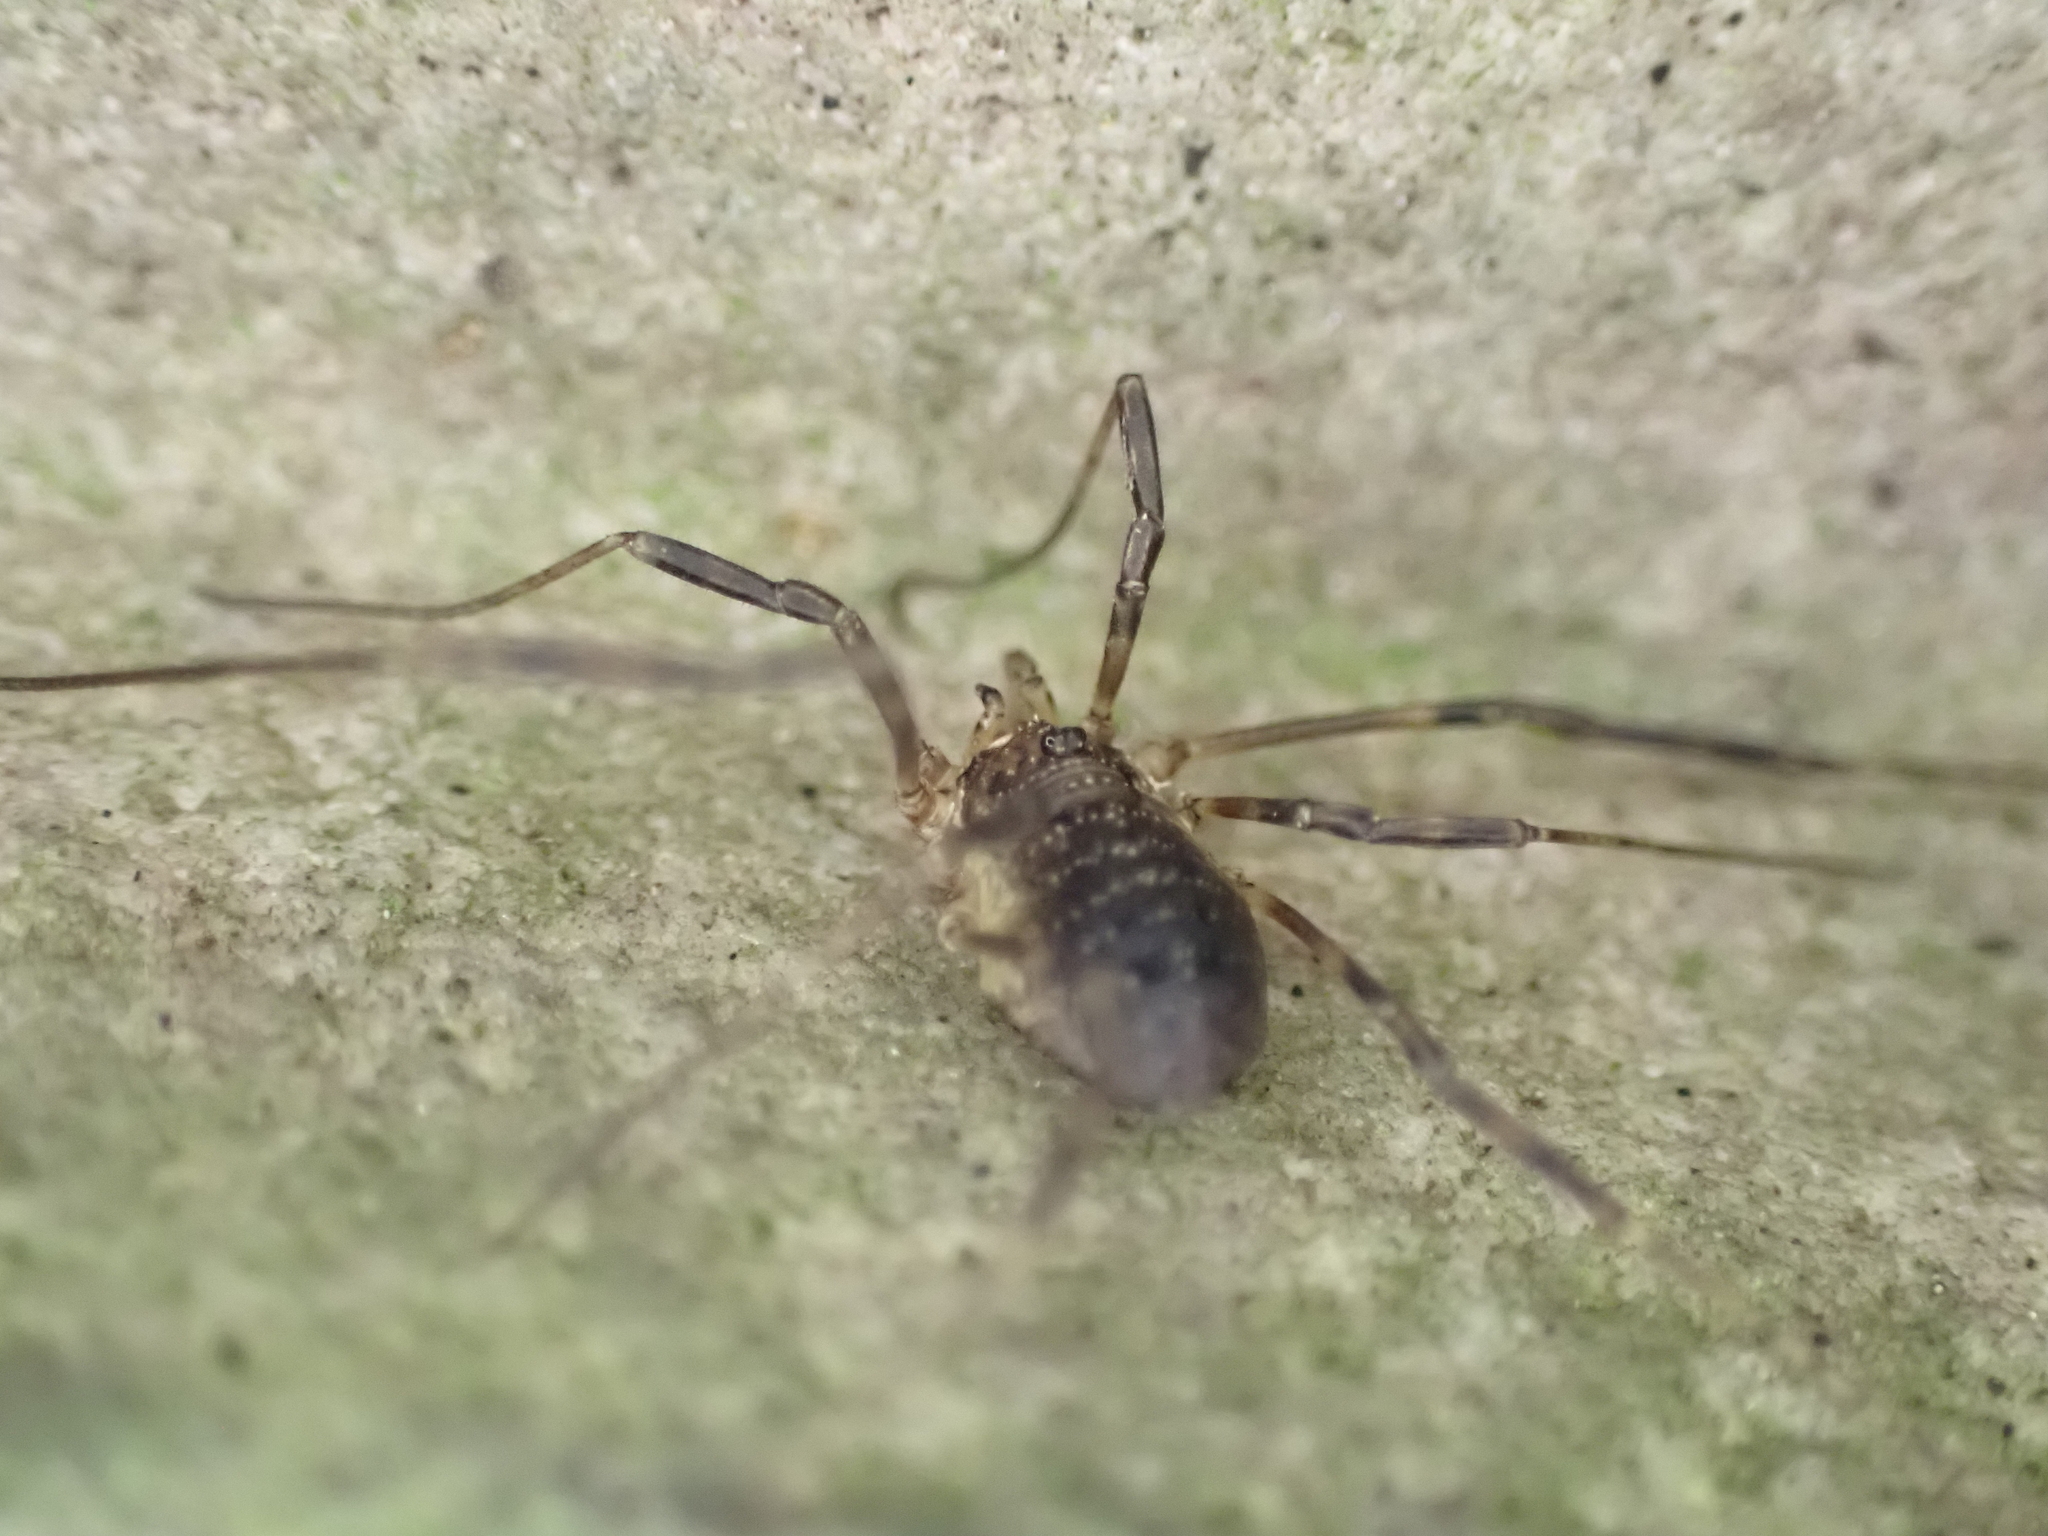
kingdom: Animalia
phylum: Arthropoda
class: Arachnida
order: Opiliones
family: Phalangiidae
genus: Oligolophus
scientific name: Oligolophus hansenii
